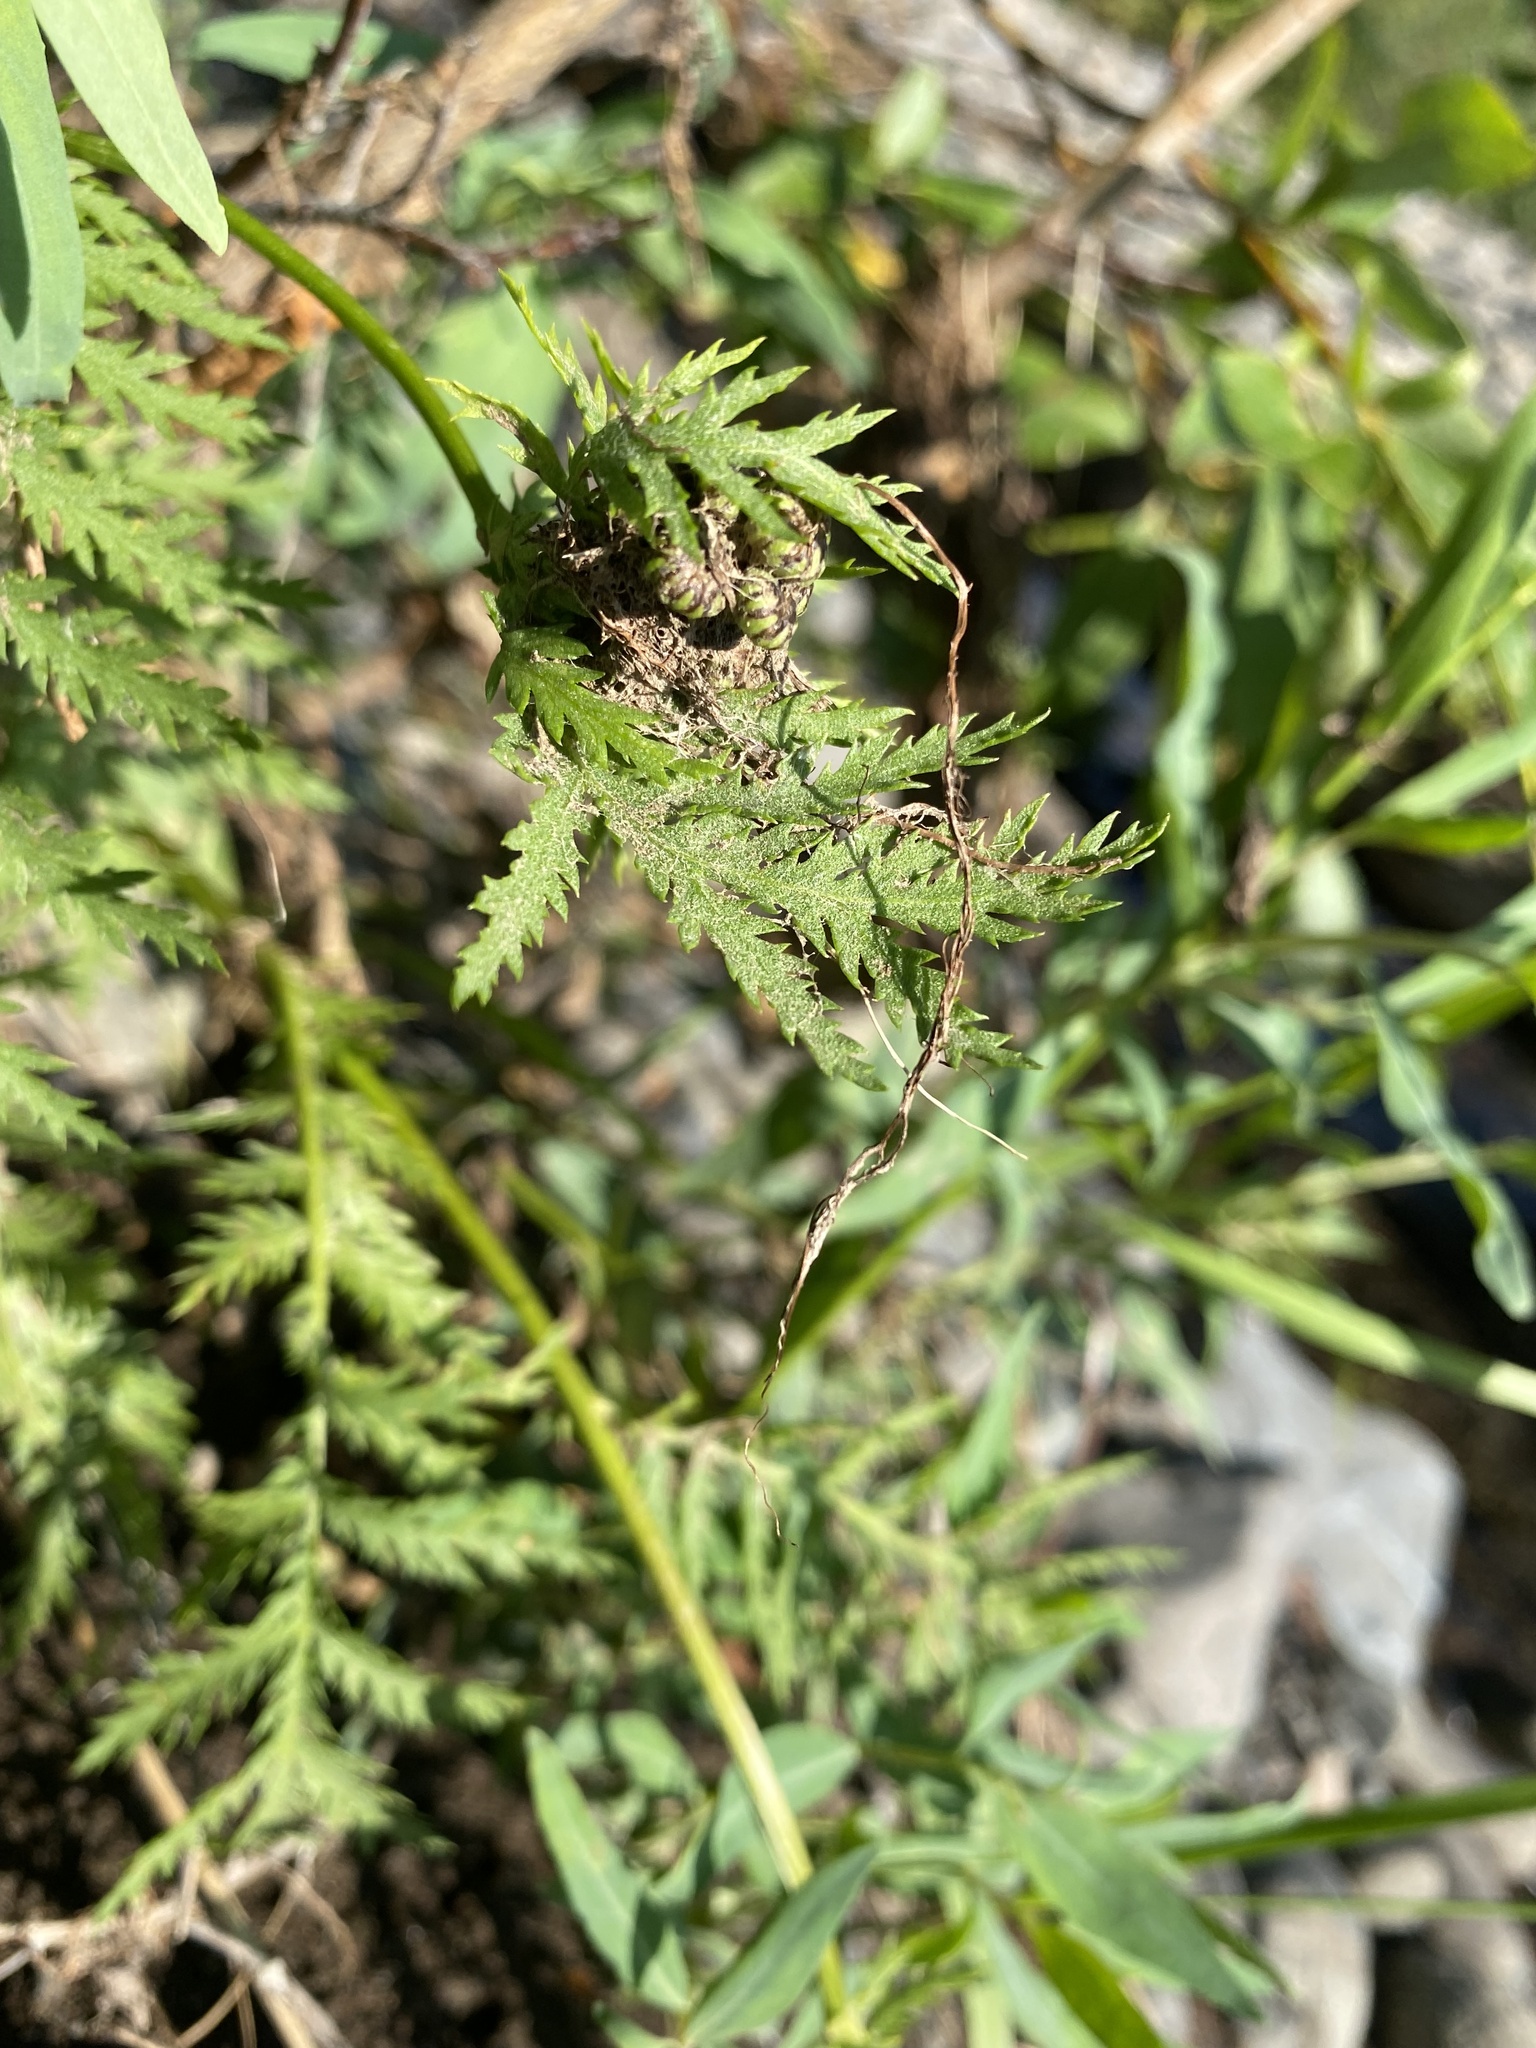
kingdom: Plantae
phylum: Tracheophyta
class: Magnoliopsida
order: Asterales
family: Asteraceae
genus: Tanacetum
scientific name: Tanacetum vulgare
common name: Common tansy
